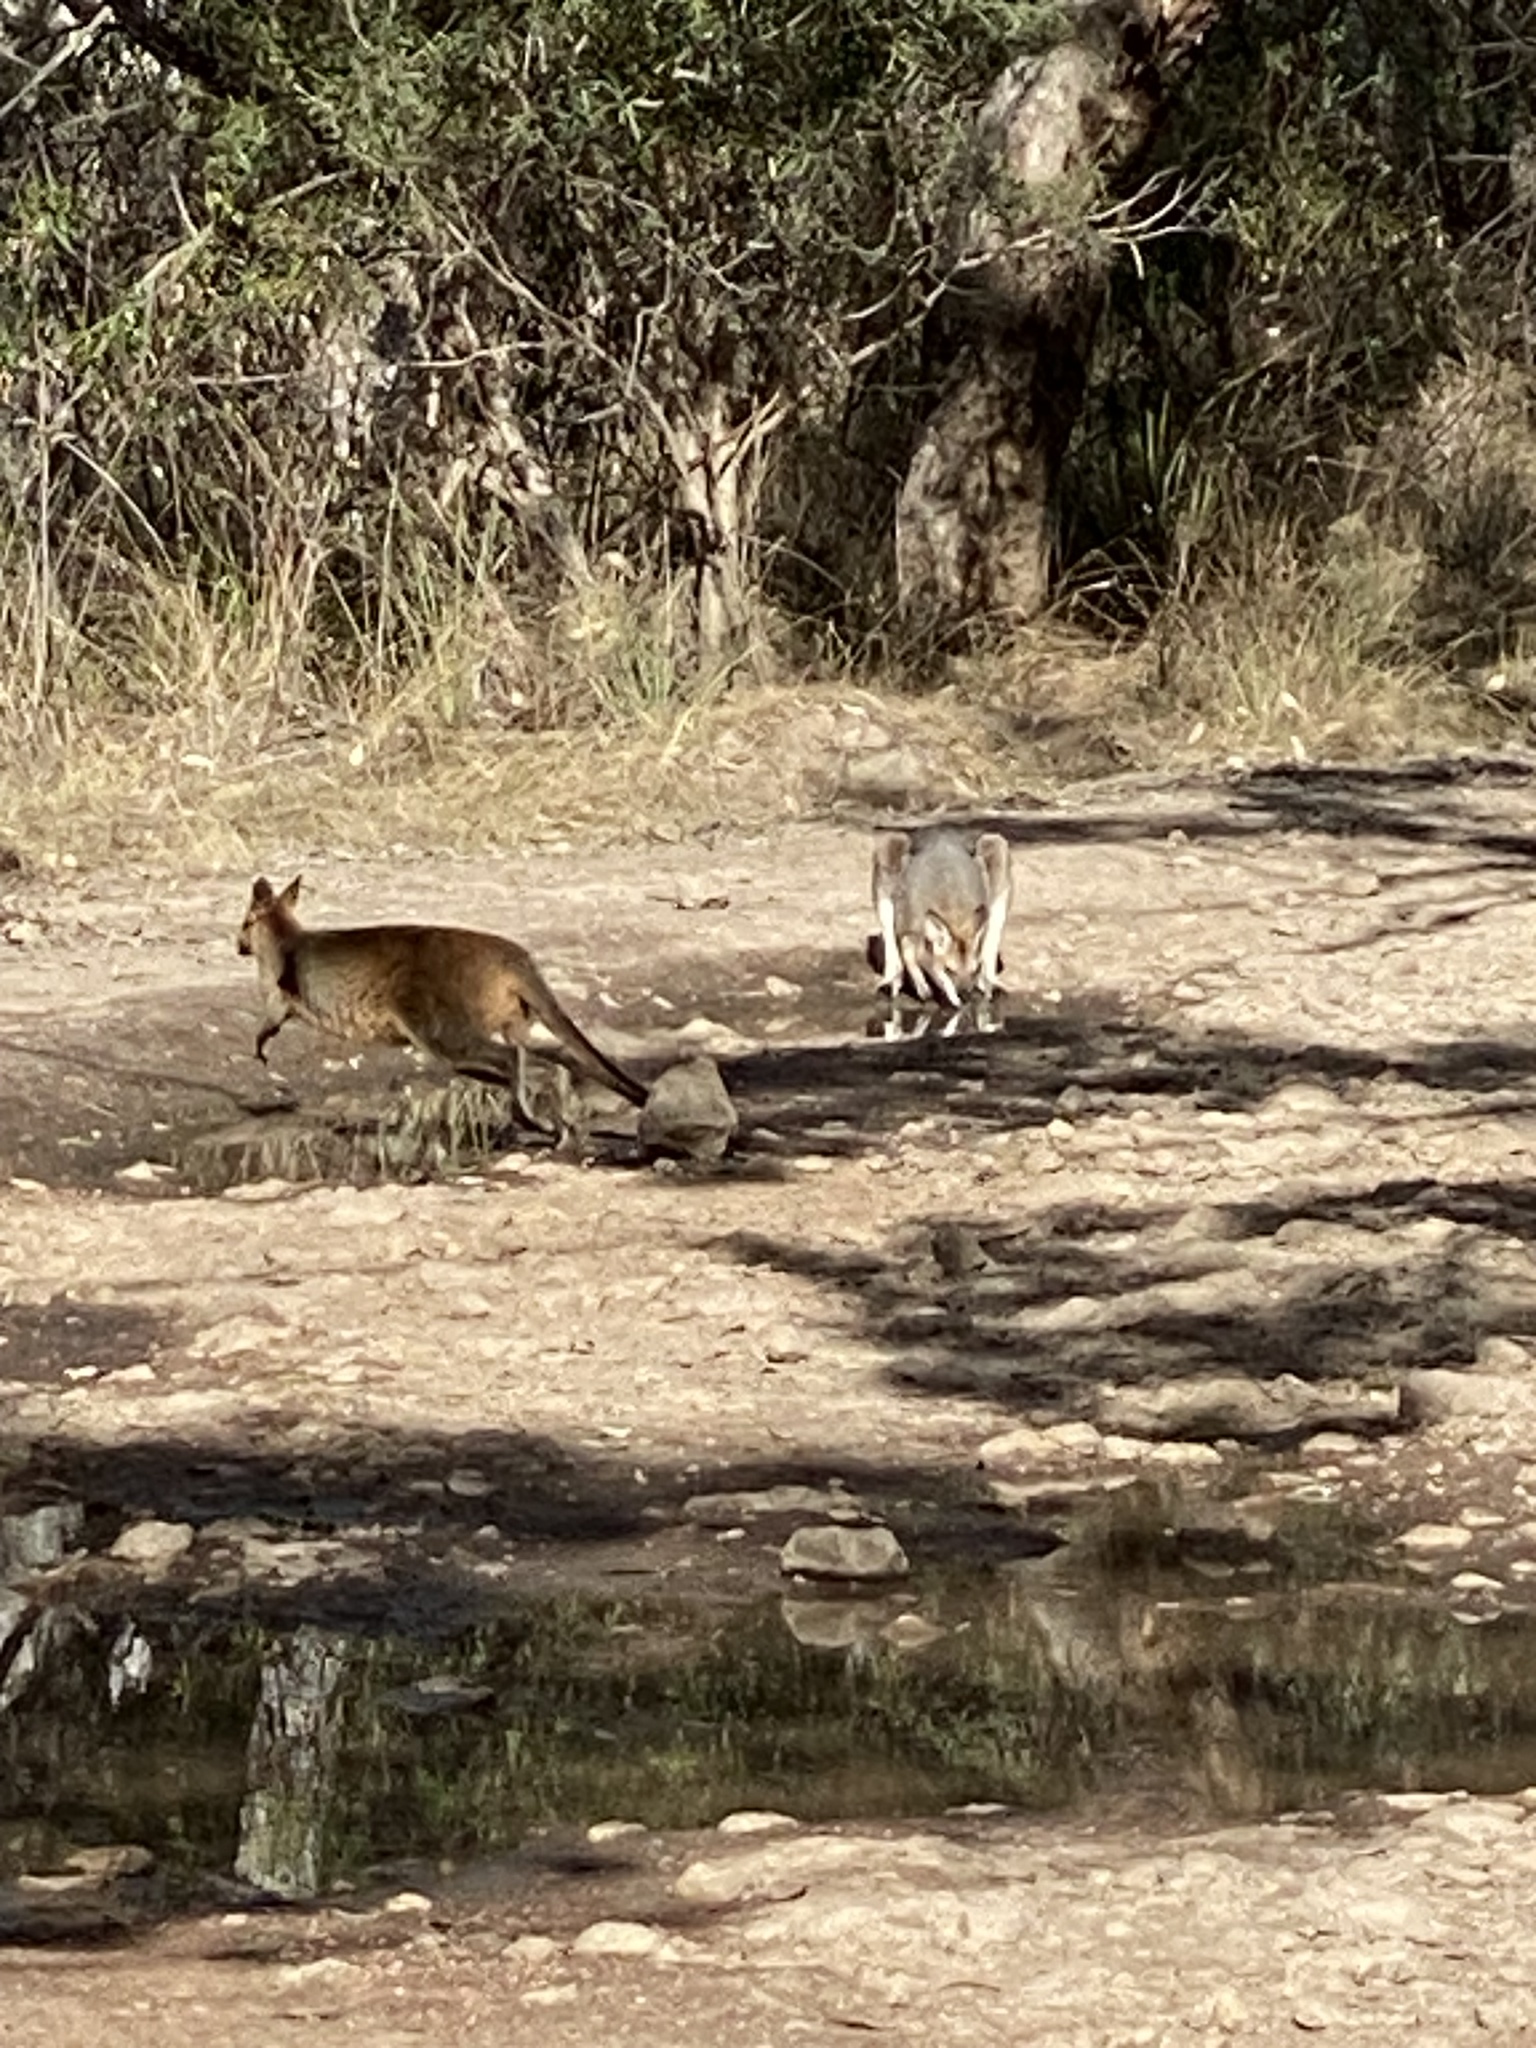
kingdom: Animalia
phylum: Chordata
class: Mammalia
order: Diprotodontia
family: Macropodidae
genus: Wallabia
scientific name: Wallabia bicolor
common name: Swamp wallaby
